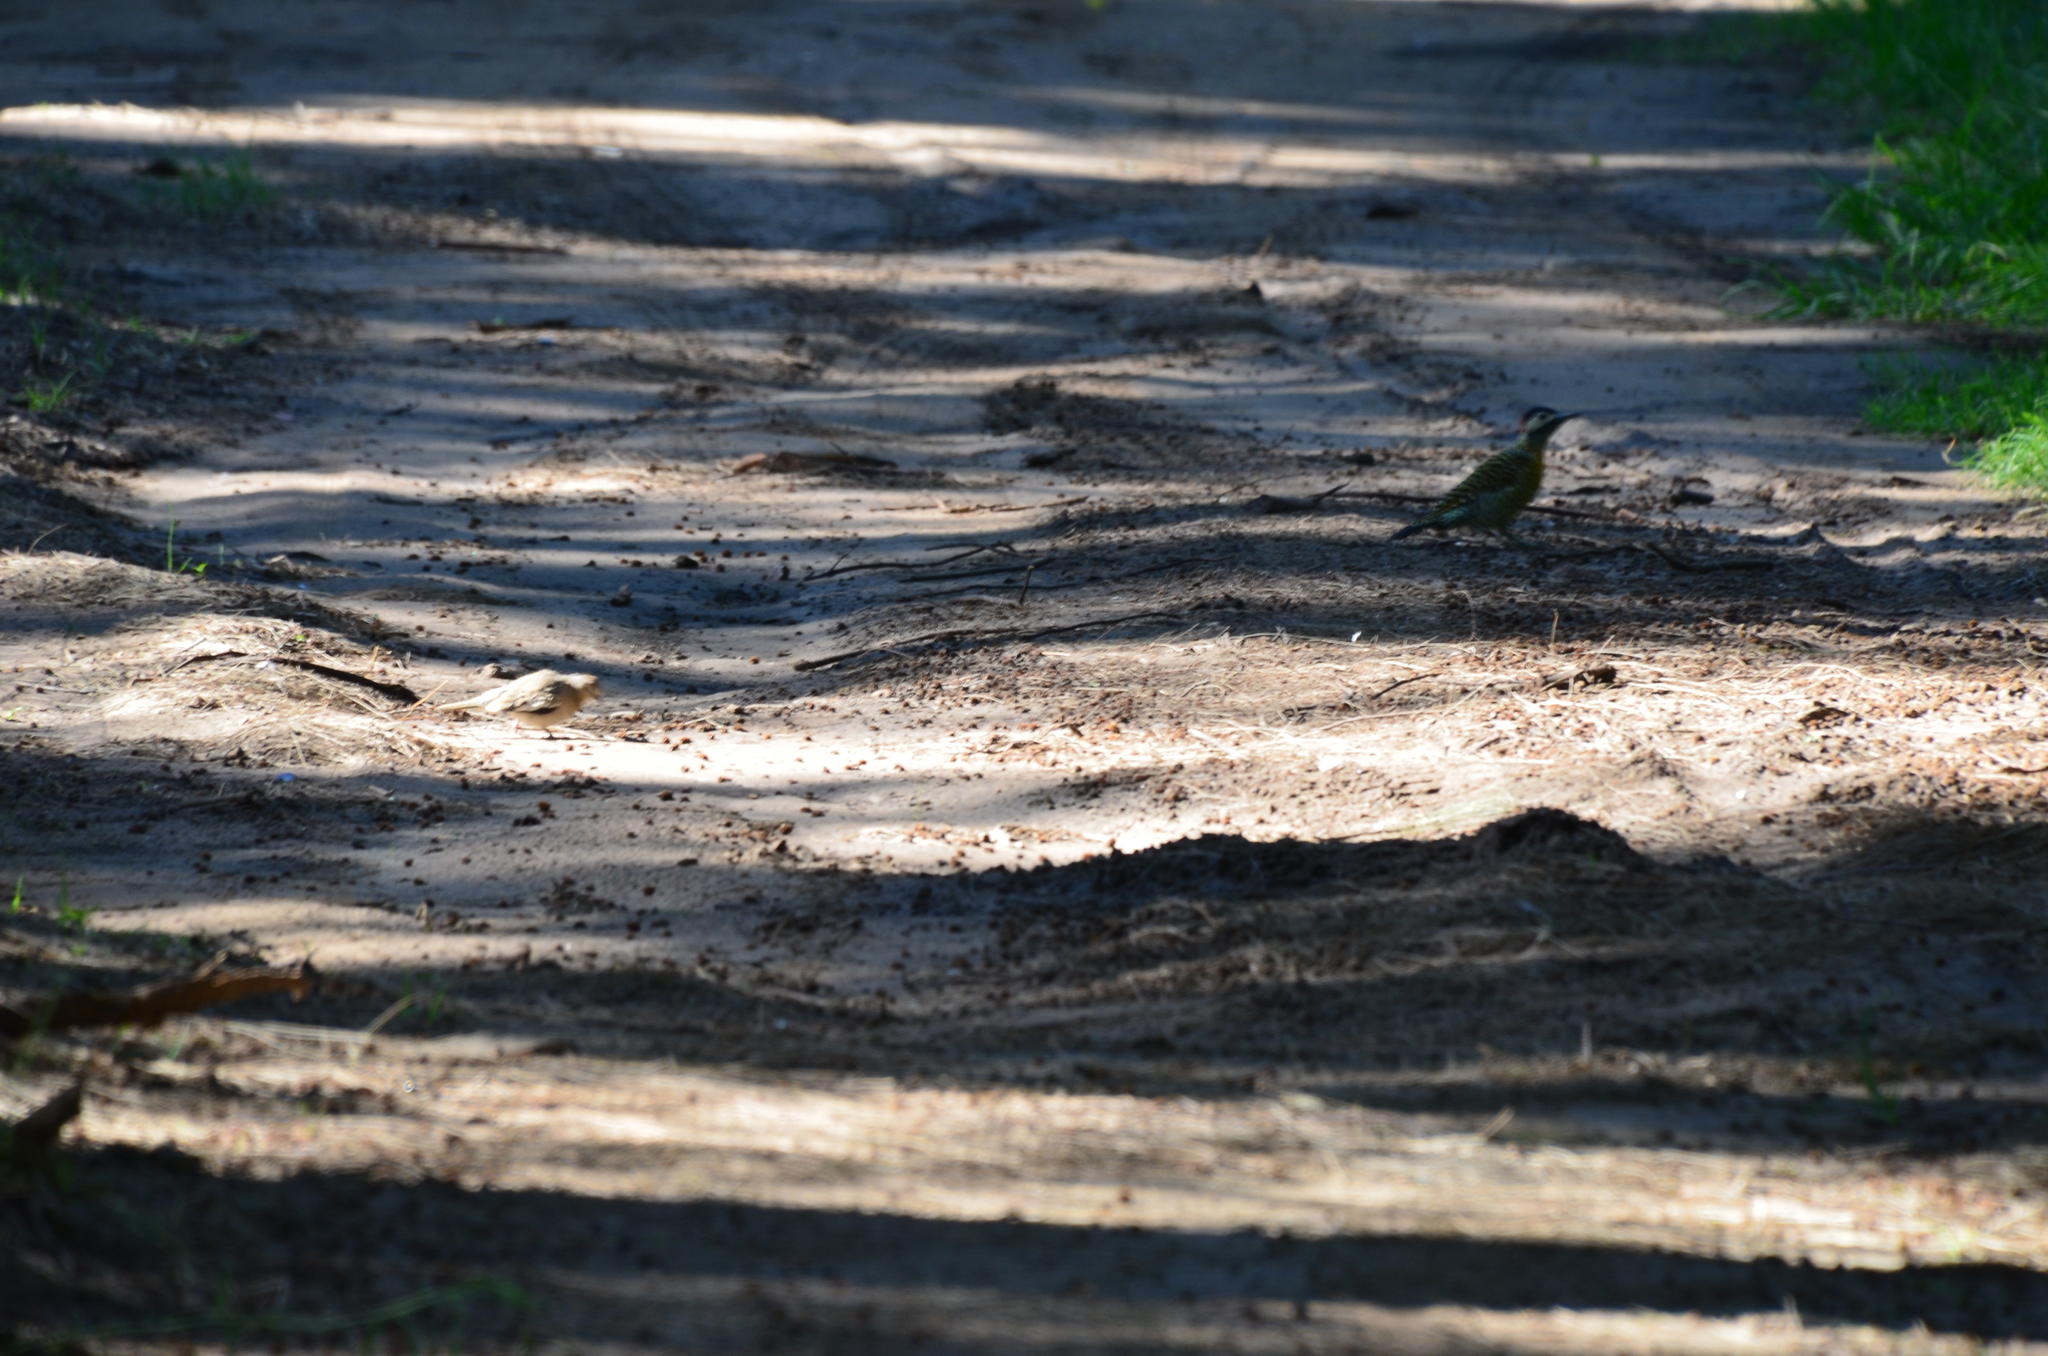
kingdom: Animalia
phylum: Chordata
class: Aves
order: Piciformes
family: Picidae
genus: Colaptes
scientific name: Colaptes melanochloros
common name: Green-barred woodpecker
